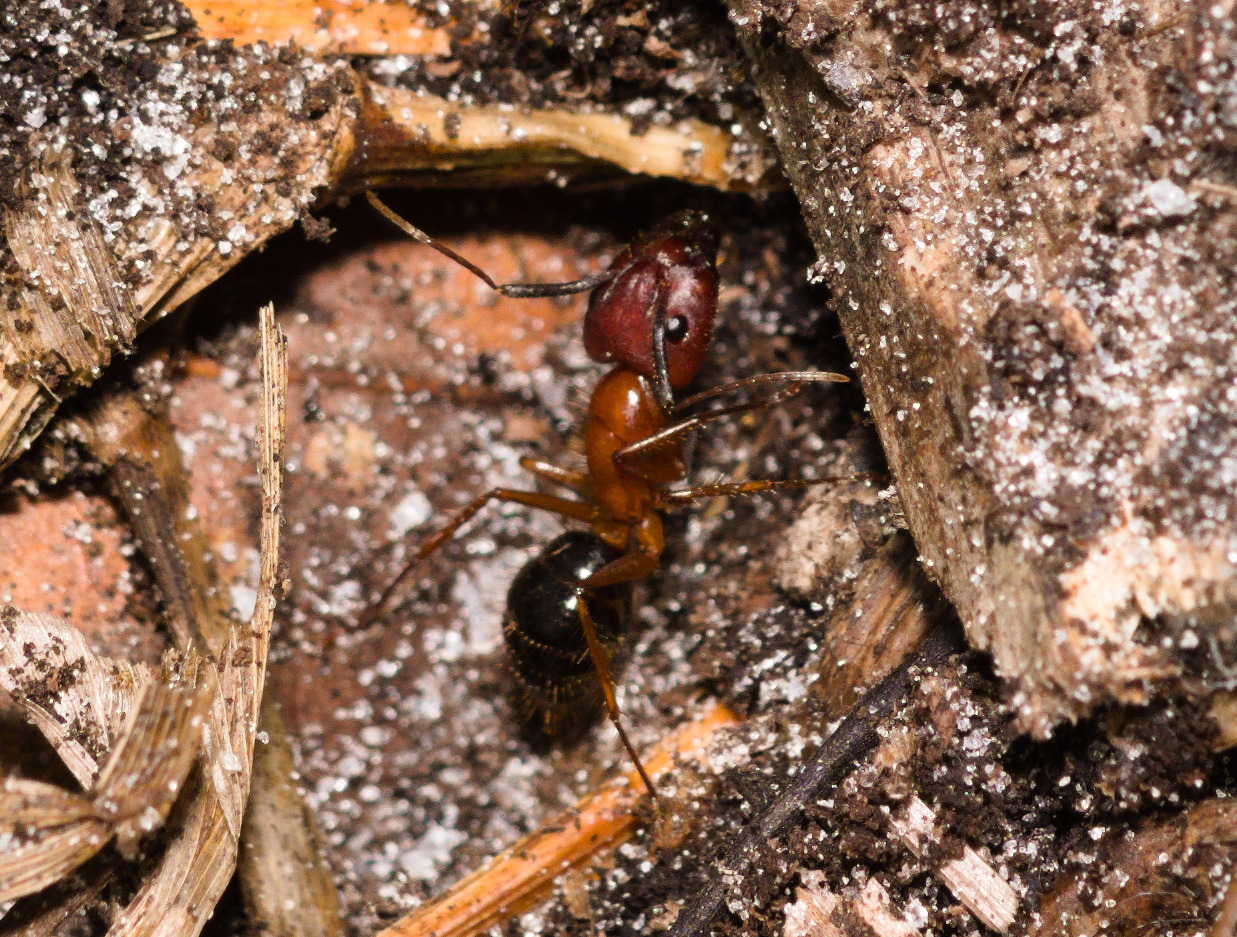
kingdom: Animalia
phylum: Arthropoda
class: Insecta
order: Hymenoptera
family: Formicidae
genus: Camponotus
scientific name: Camponotus floridanus
